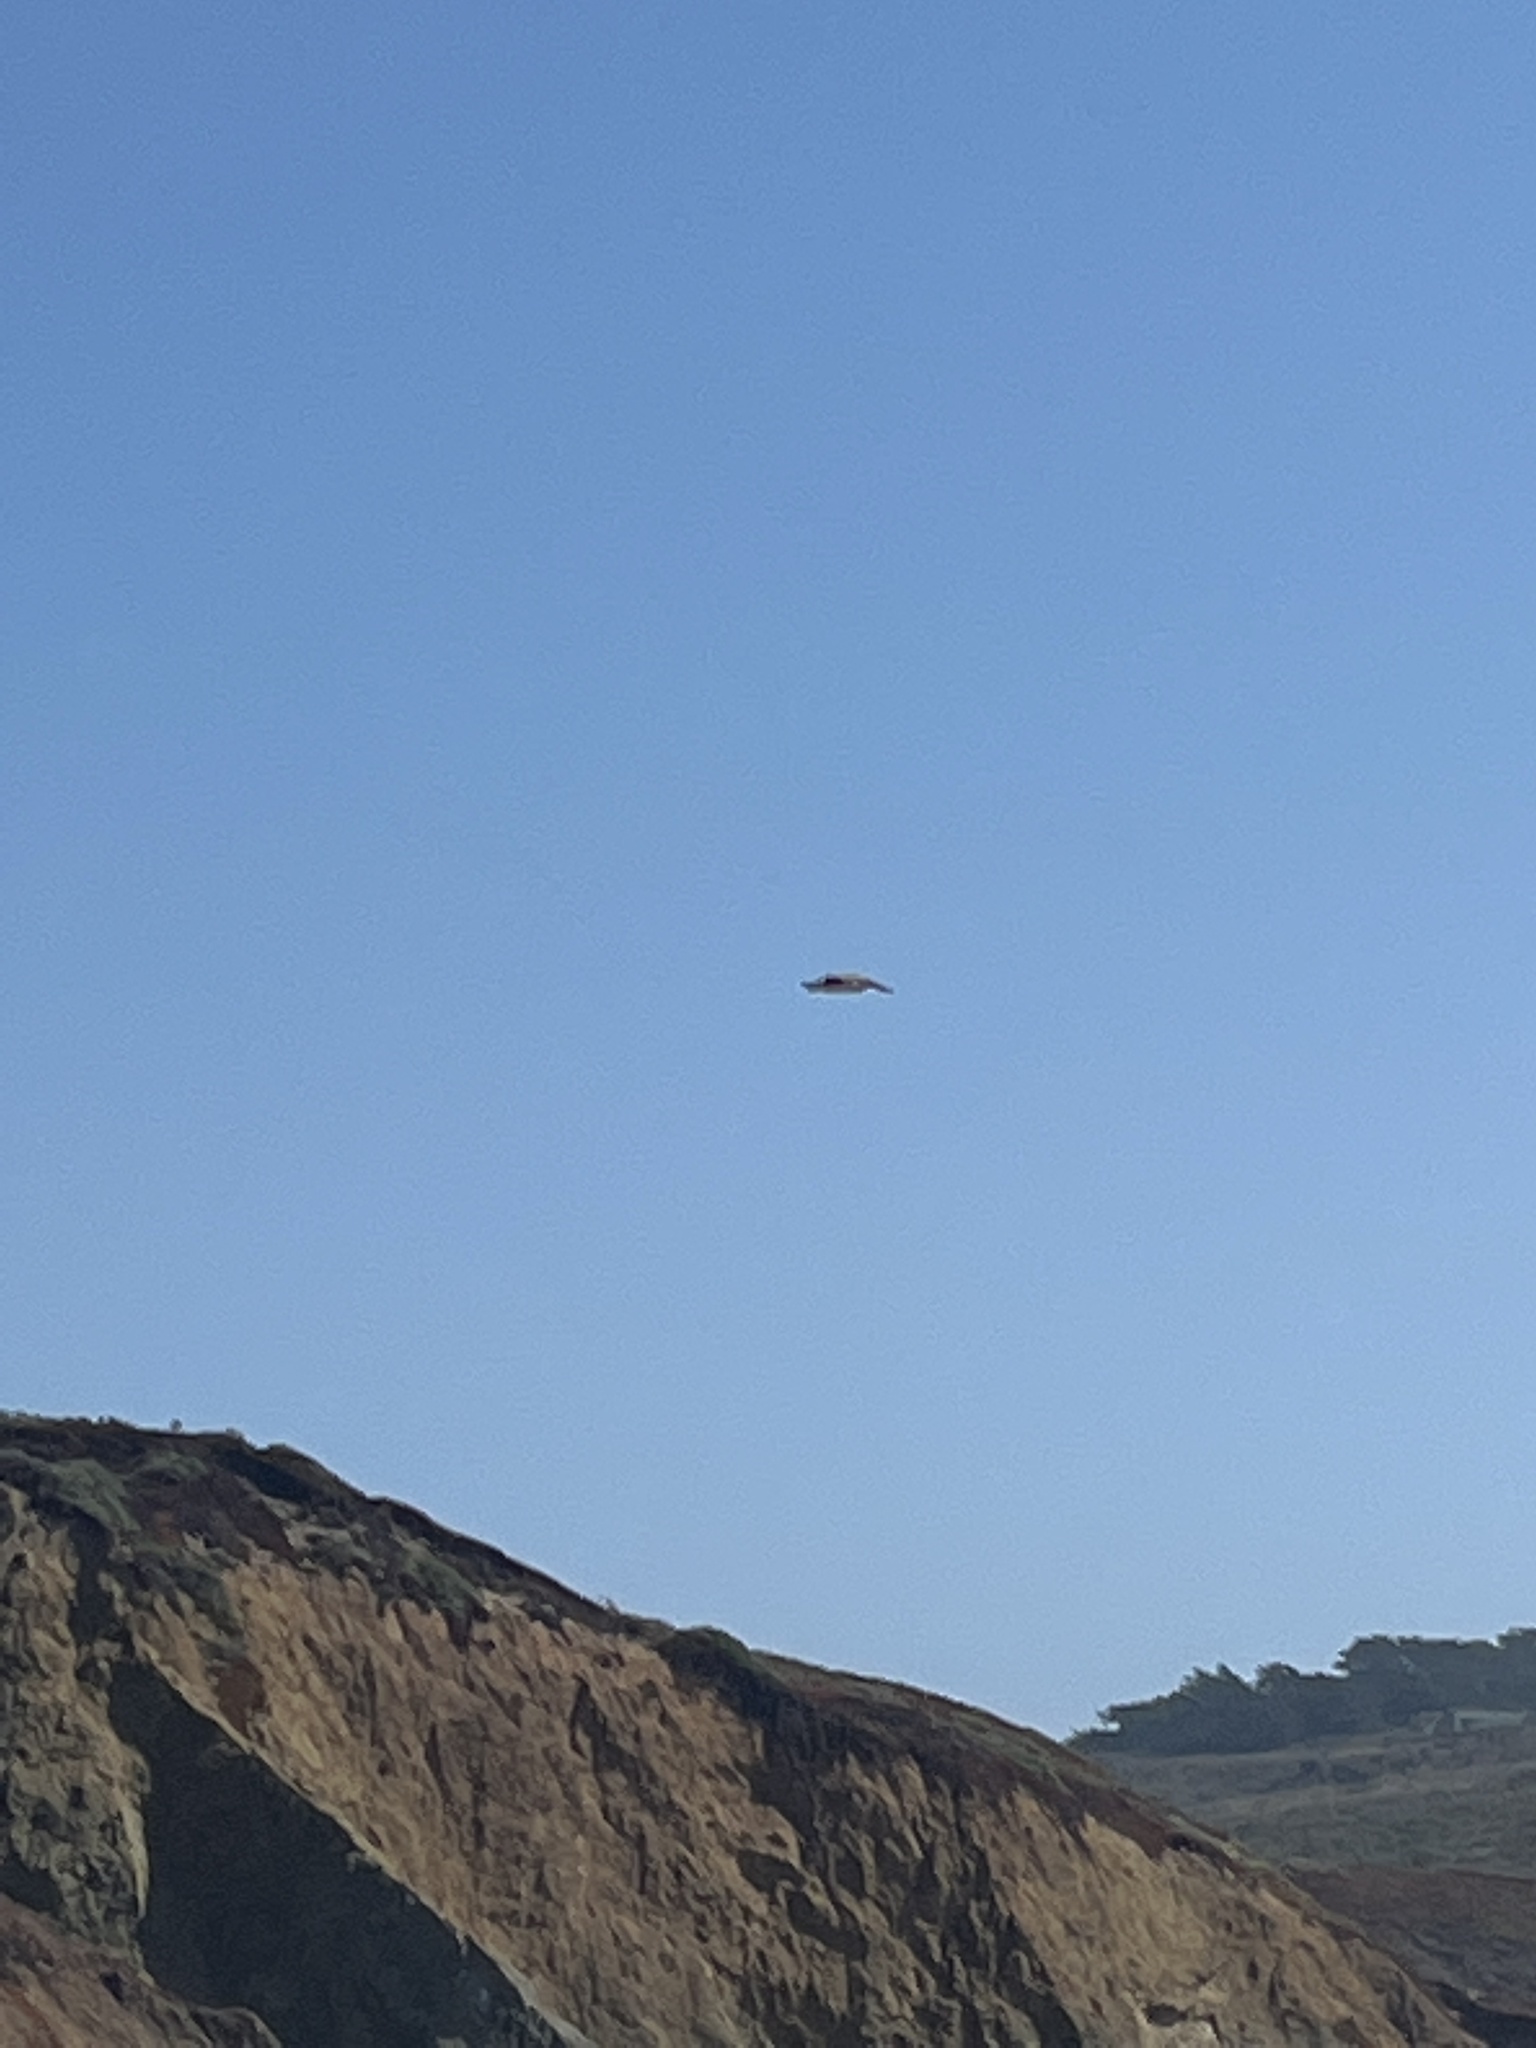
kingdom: Animalia
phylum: Chordata
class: Aves
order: Pelecaniformes
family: Pelecanidae
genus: Pelecanus
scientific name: Pelecanus occidentalis
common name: Brown pelican
